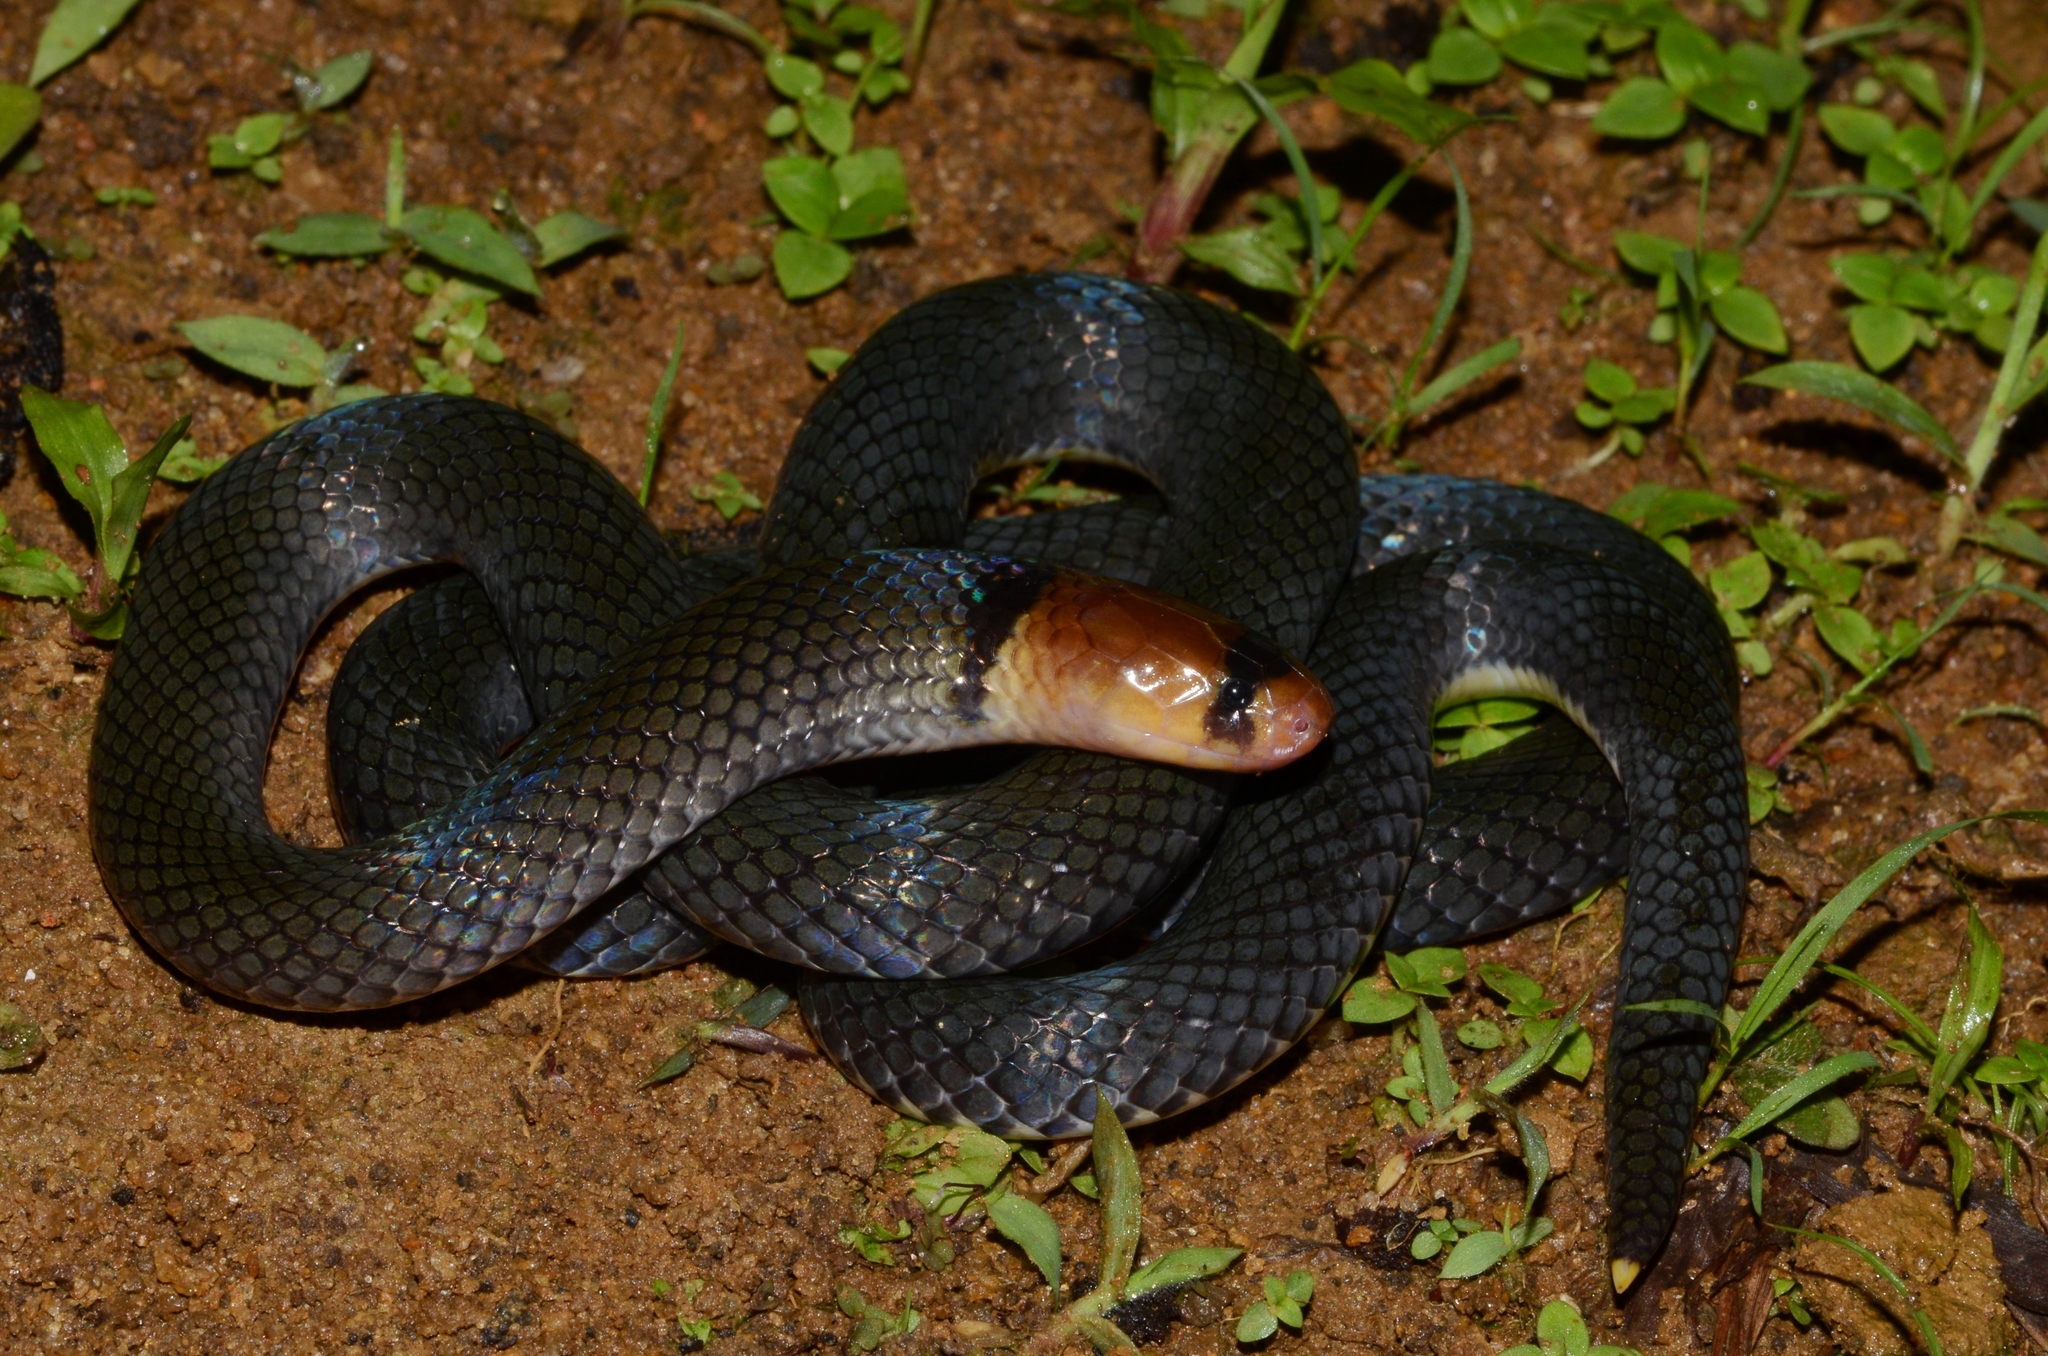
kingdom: Animalia
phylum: Chordata
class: Squamata
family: Atractaspididae
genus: Polemon
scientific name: Polemon collaris
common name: Collared snake-eater
